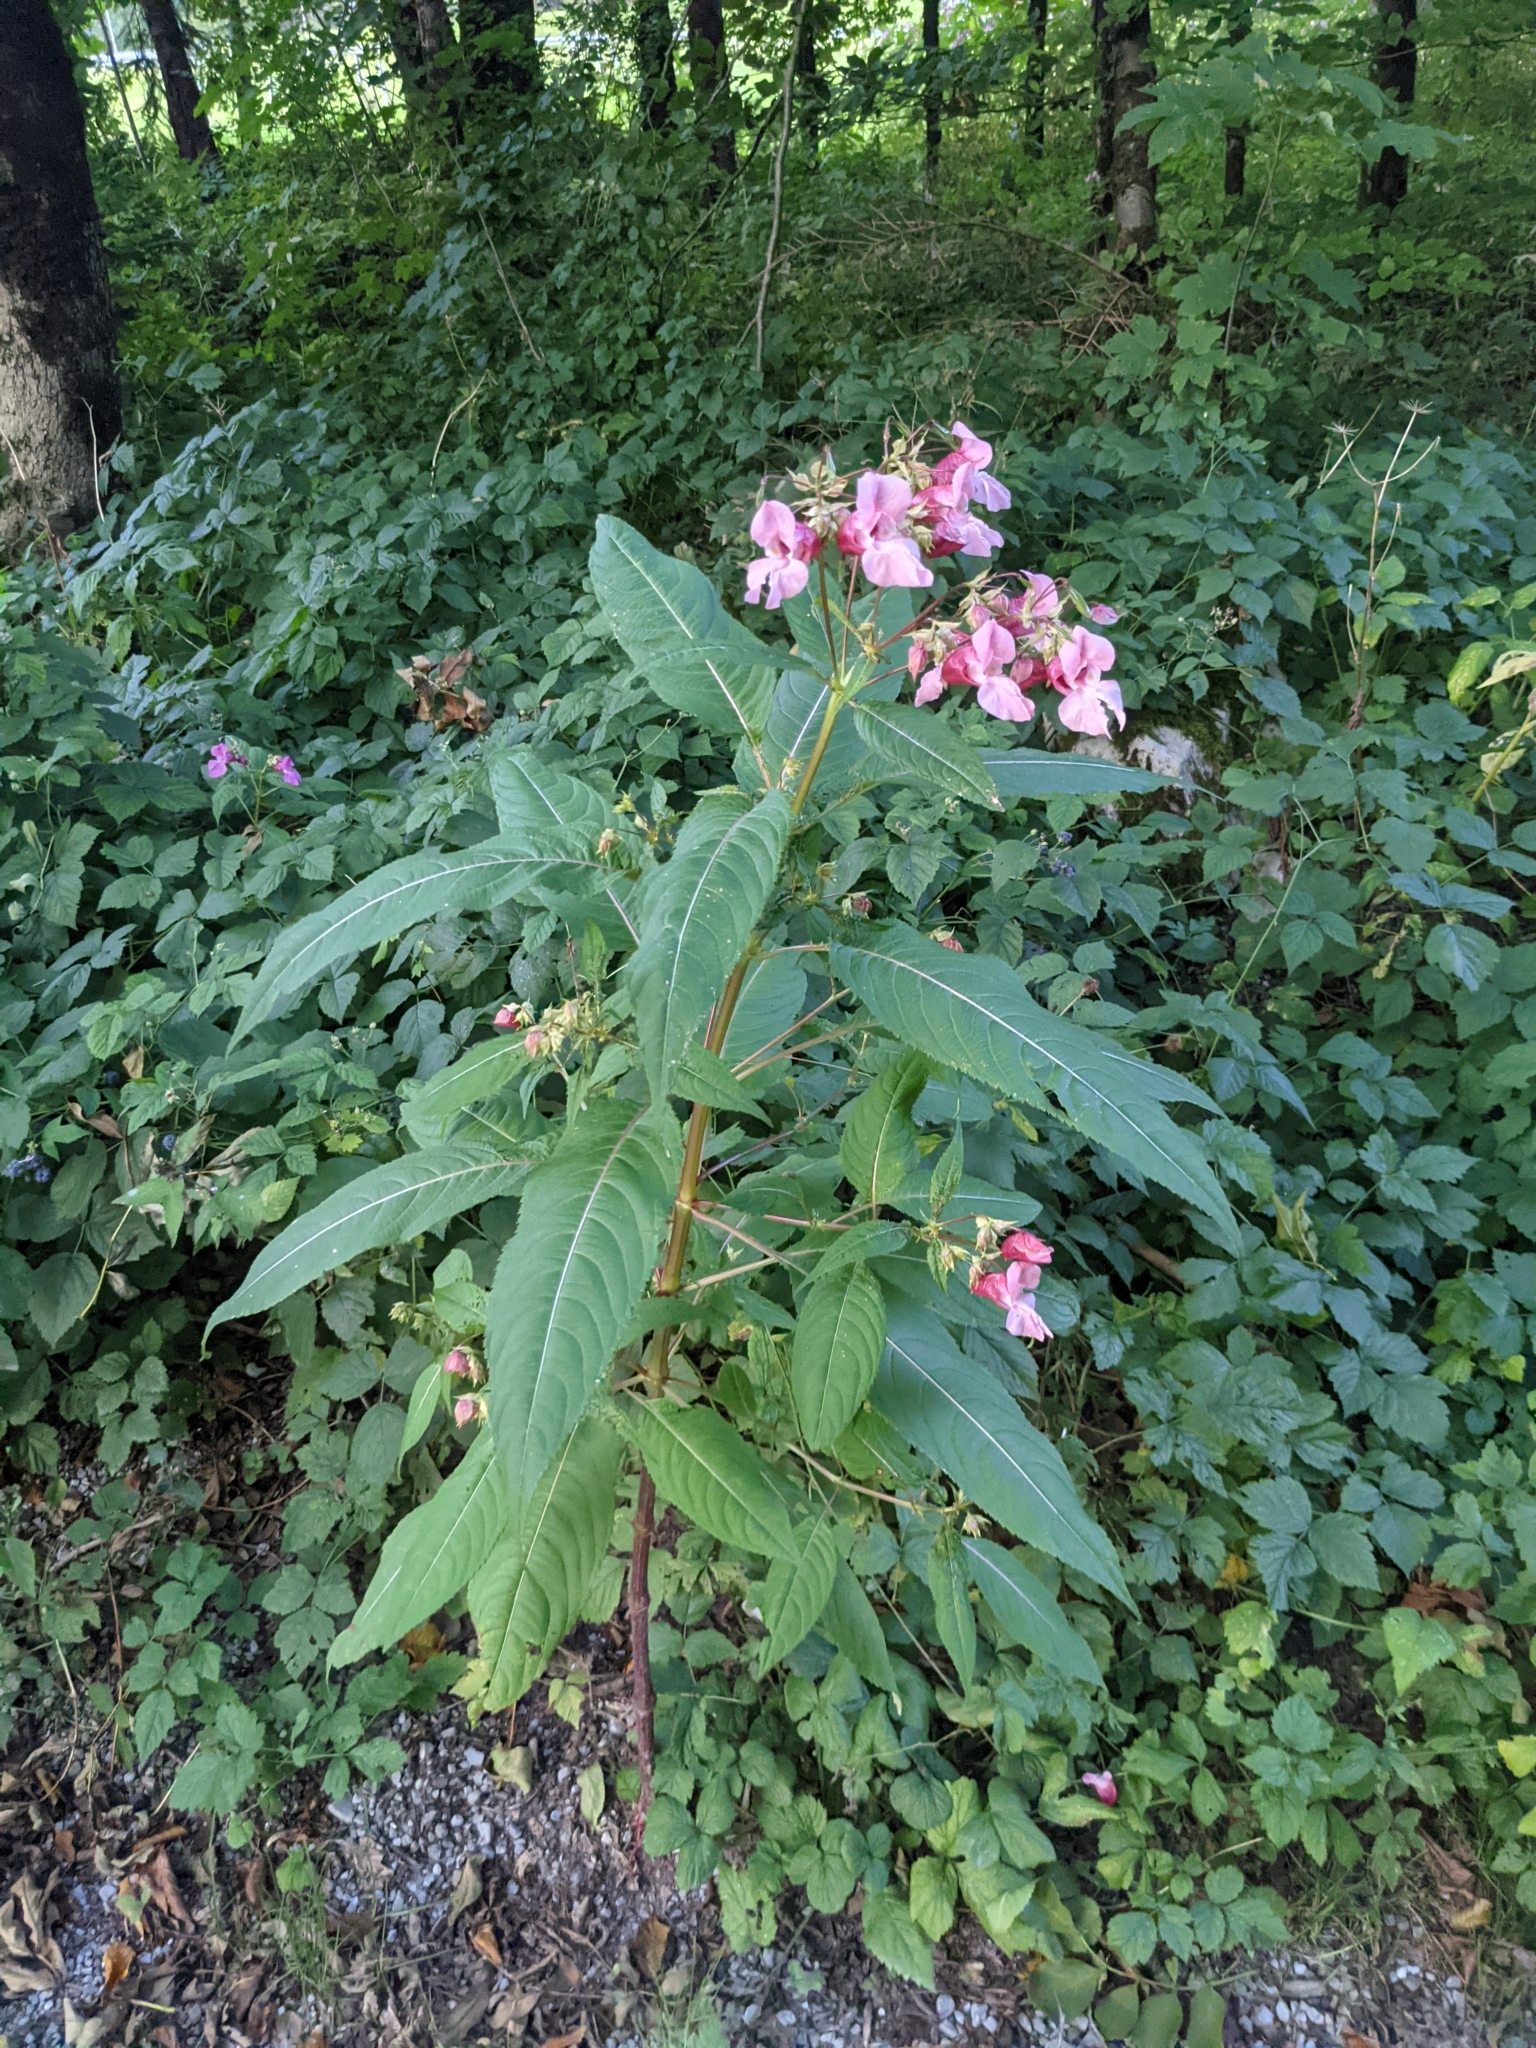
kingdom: Plantae
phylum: Tracheophyta
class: Magnoliopsida
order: Ericales
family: Balsaminaceae
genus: Impatiens
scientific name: Impatiens glandulifera
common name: Himalayan balsam
